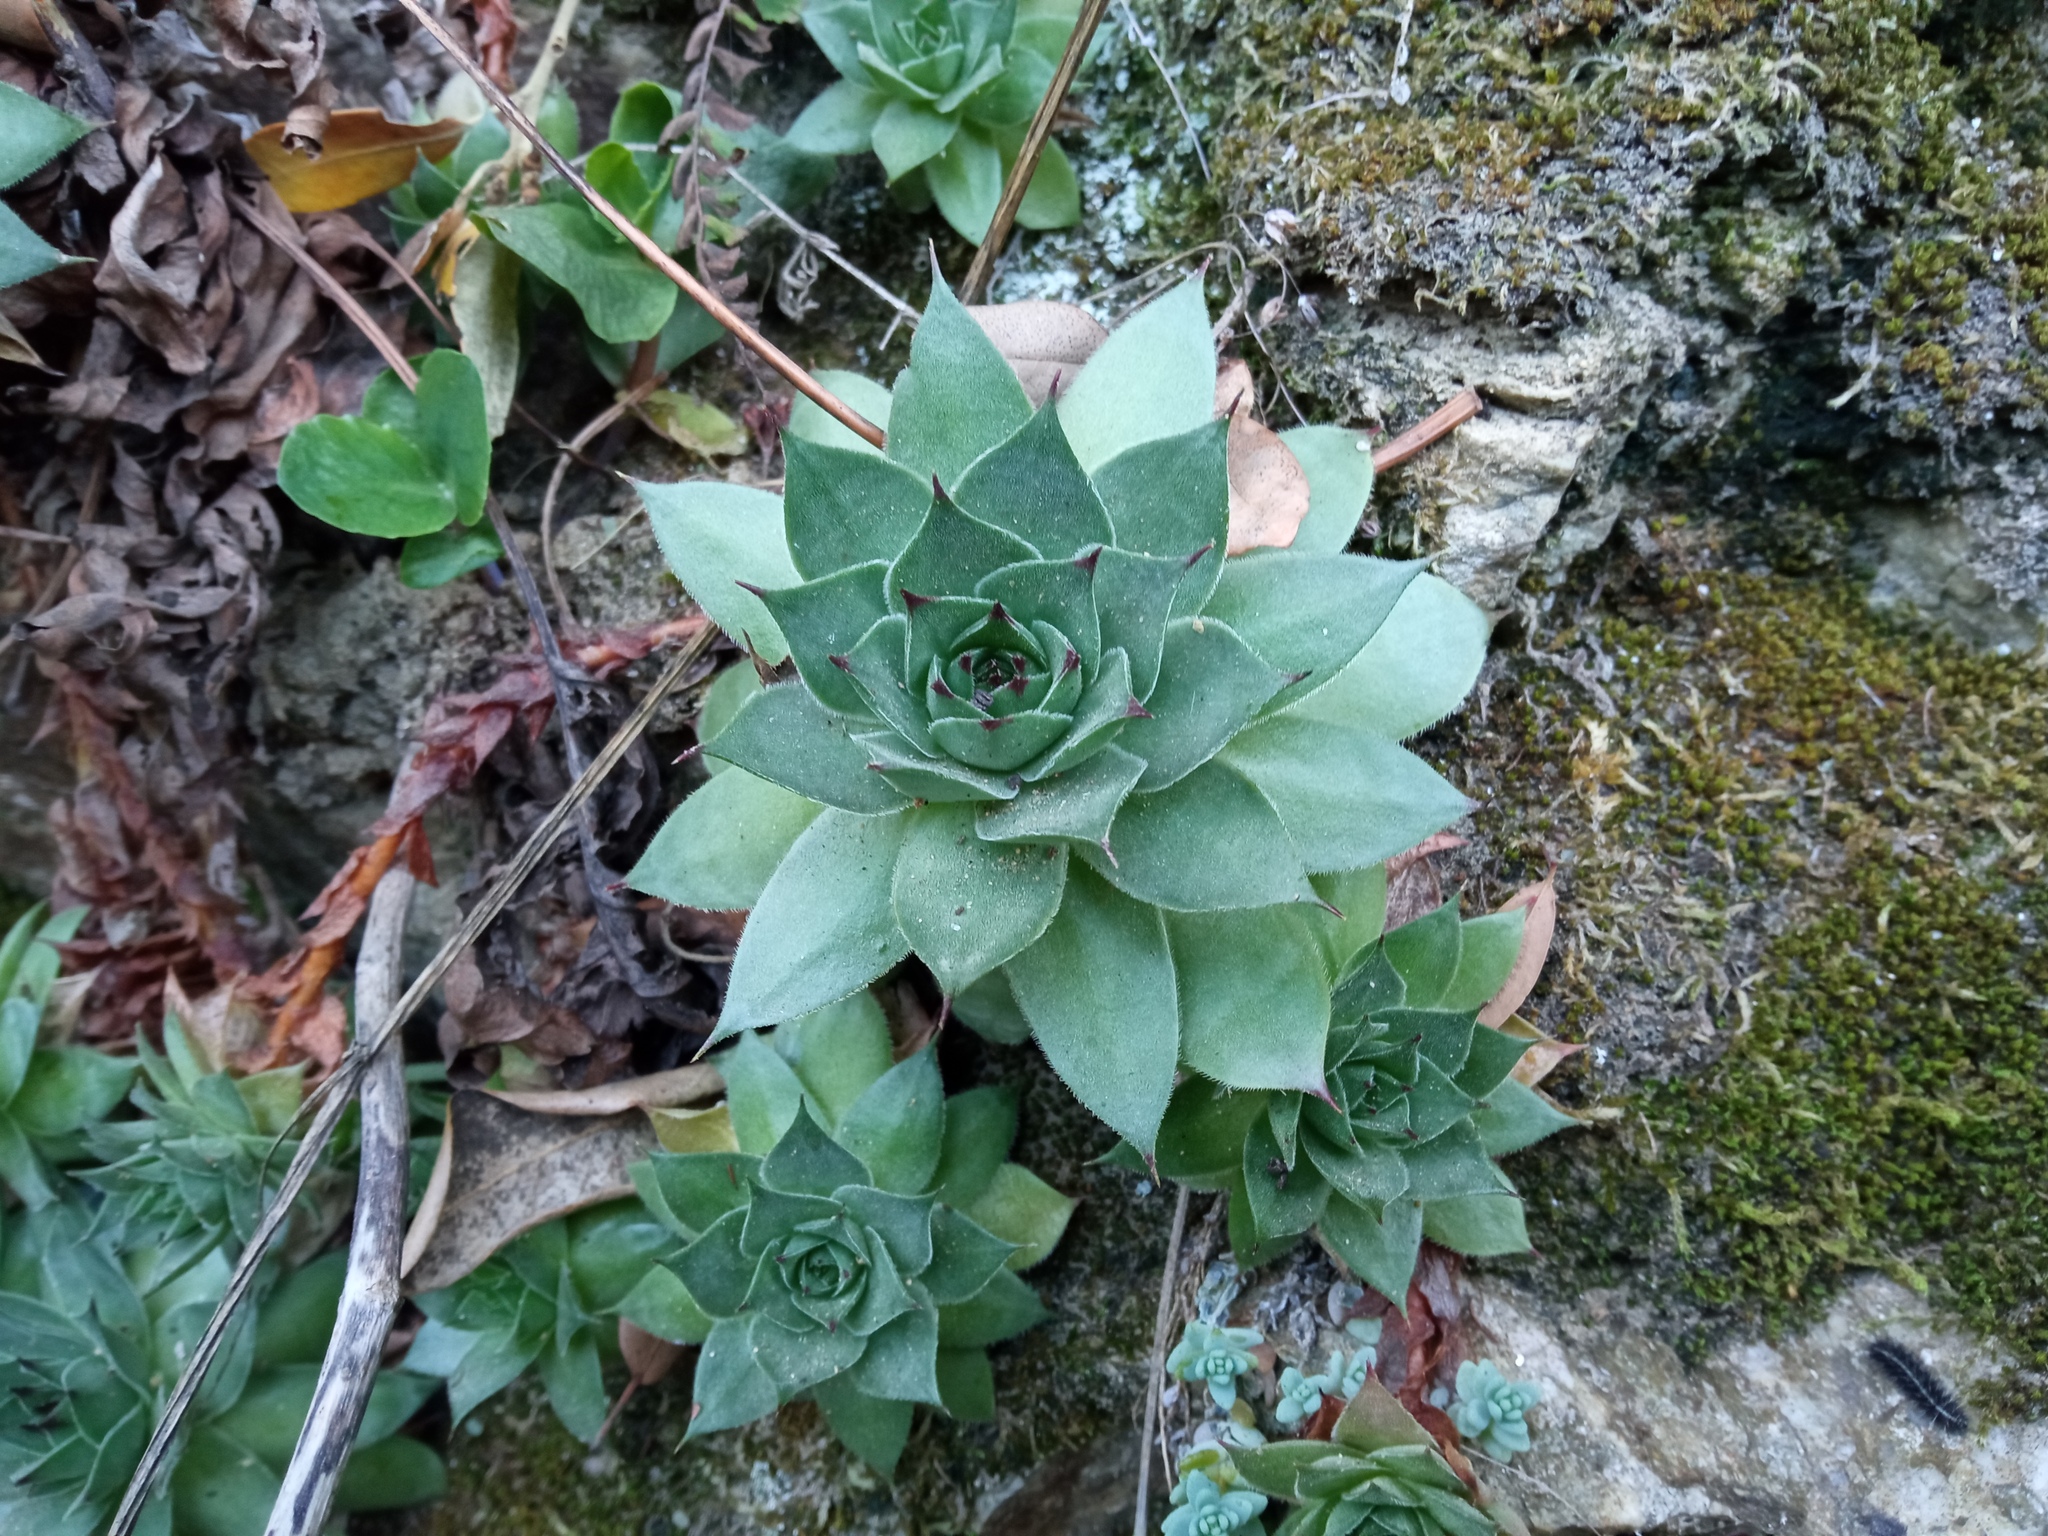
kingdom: Plantae
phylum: Tracheophyta
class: Magnoliopsida
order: Saxifragales
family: Crassulaceae
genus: Sempervivum
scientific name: Sempervivum tectorum
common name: House-leek
